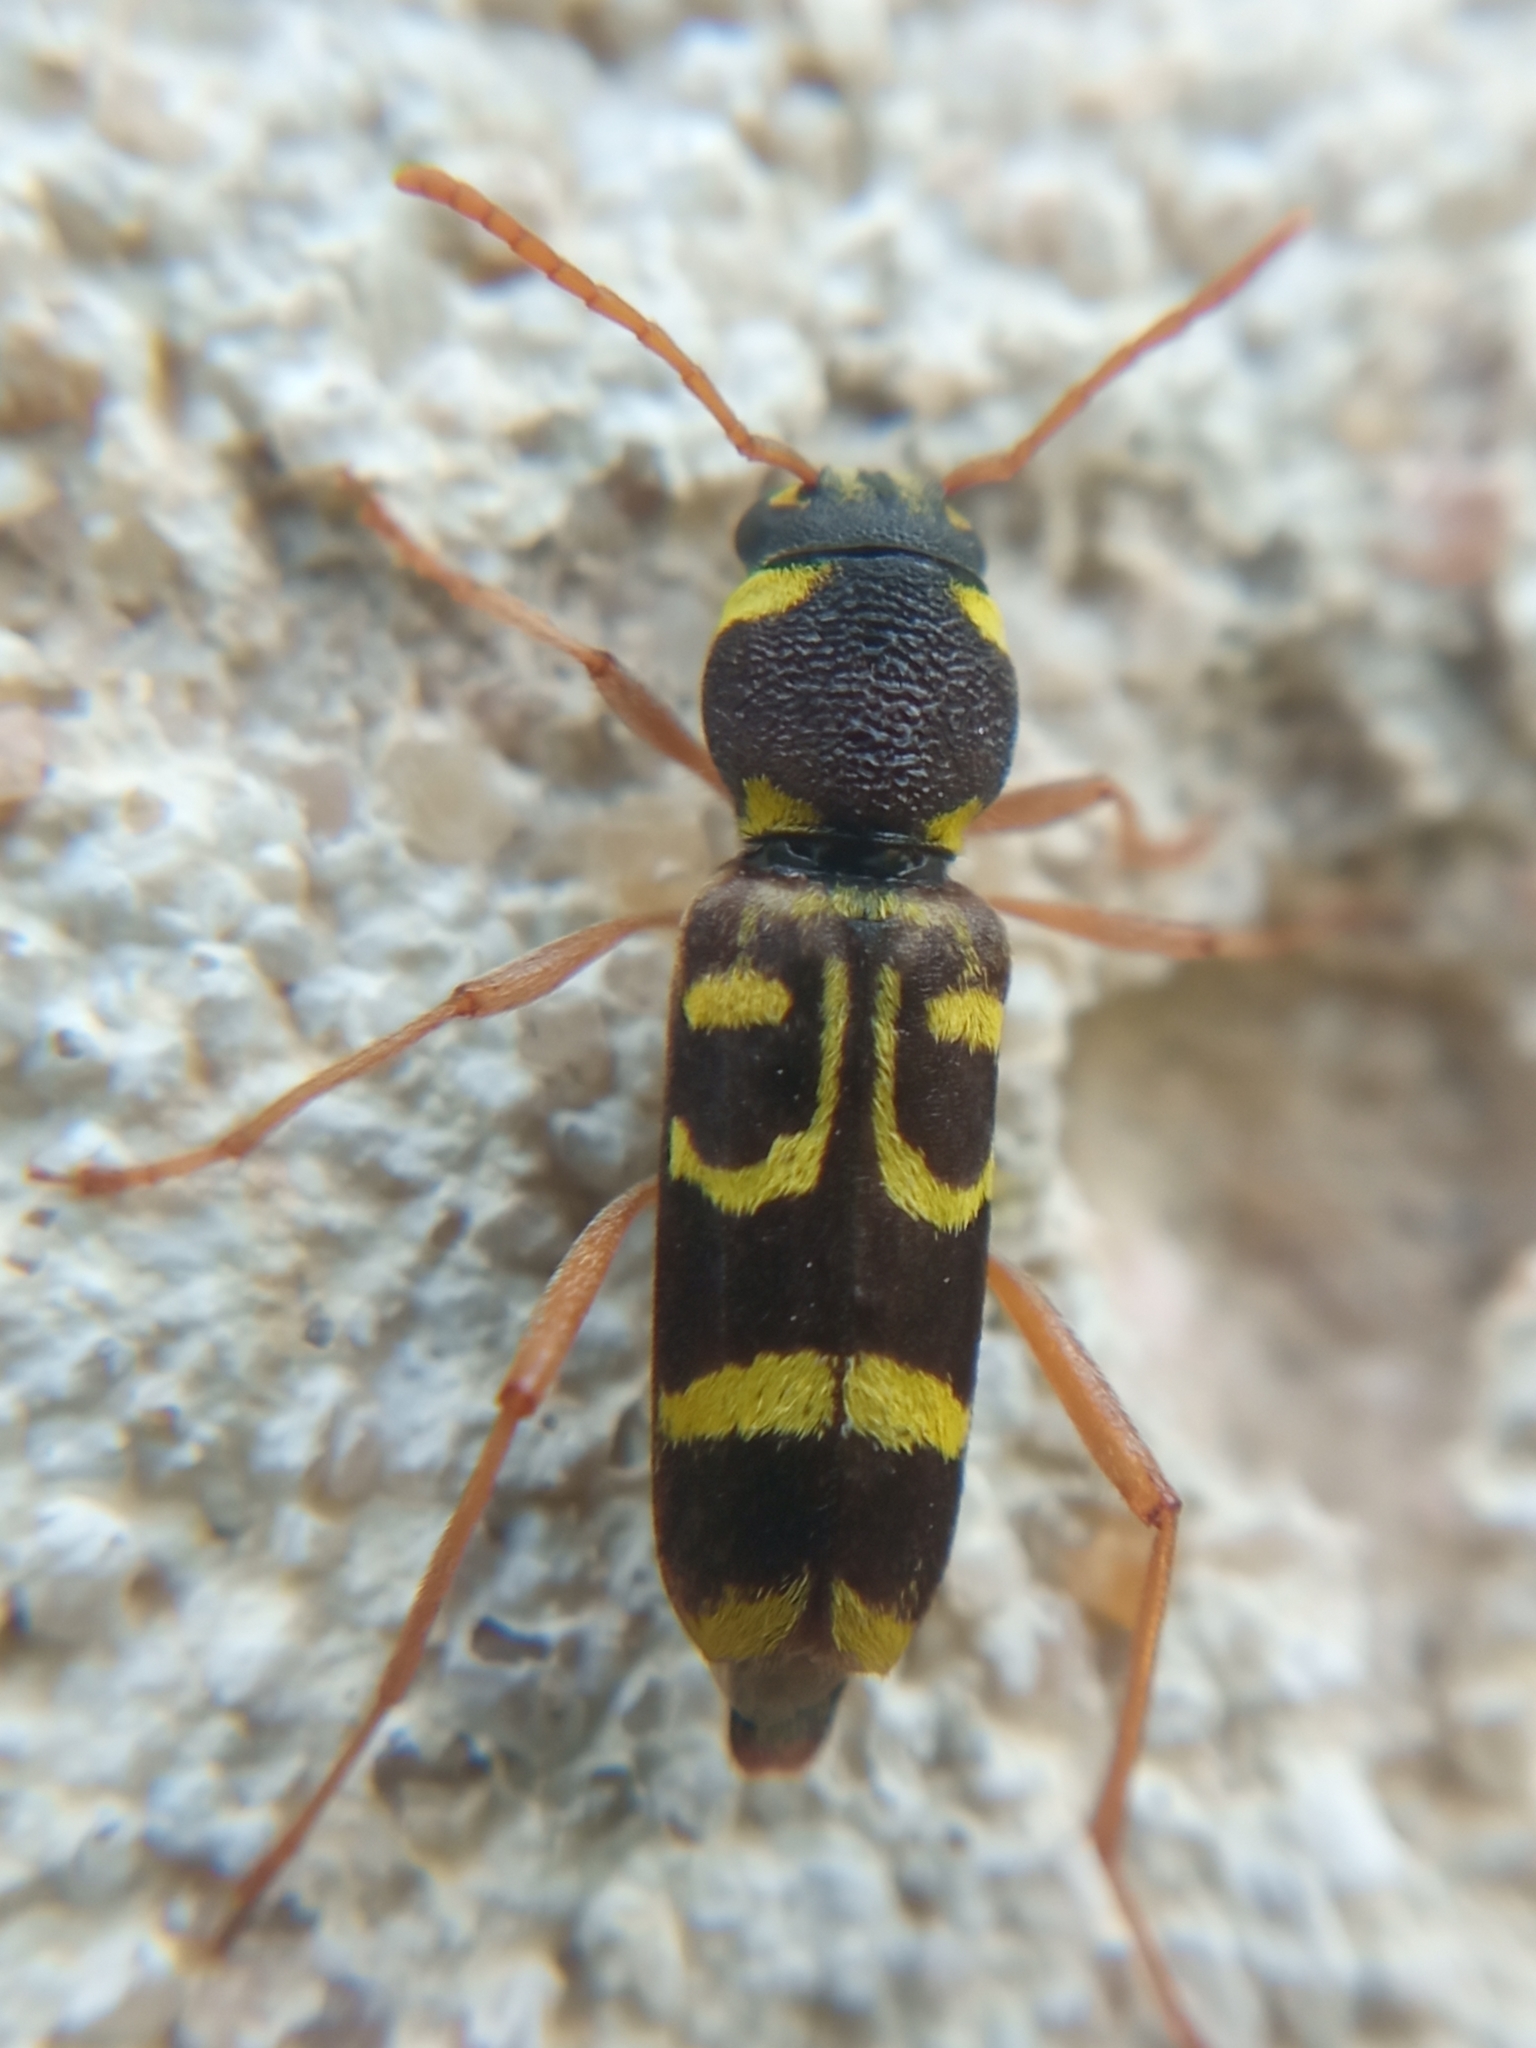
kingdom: Animalia
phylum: Arthropoda
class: Insecta
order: Coleoptera
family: Cerambycidae
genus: Xylotrechus
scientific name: Xylotrechus arvicola
